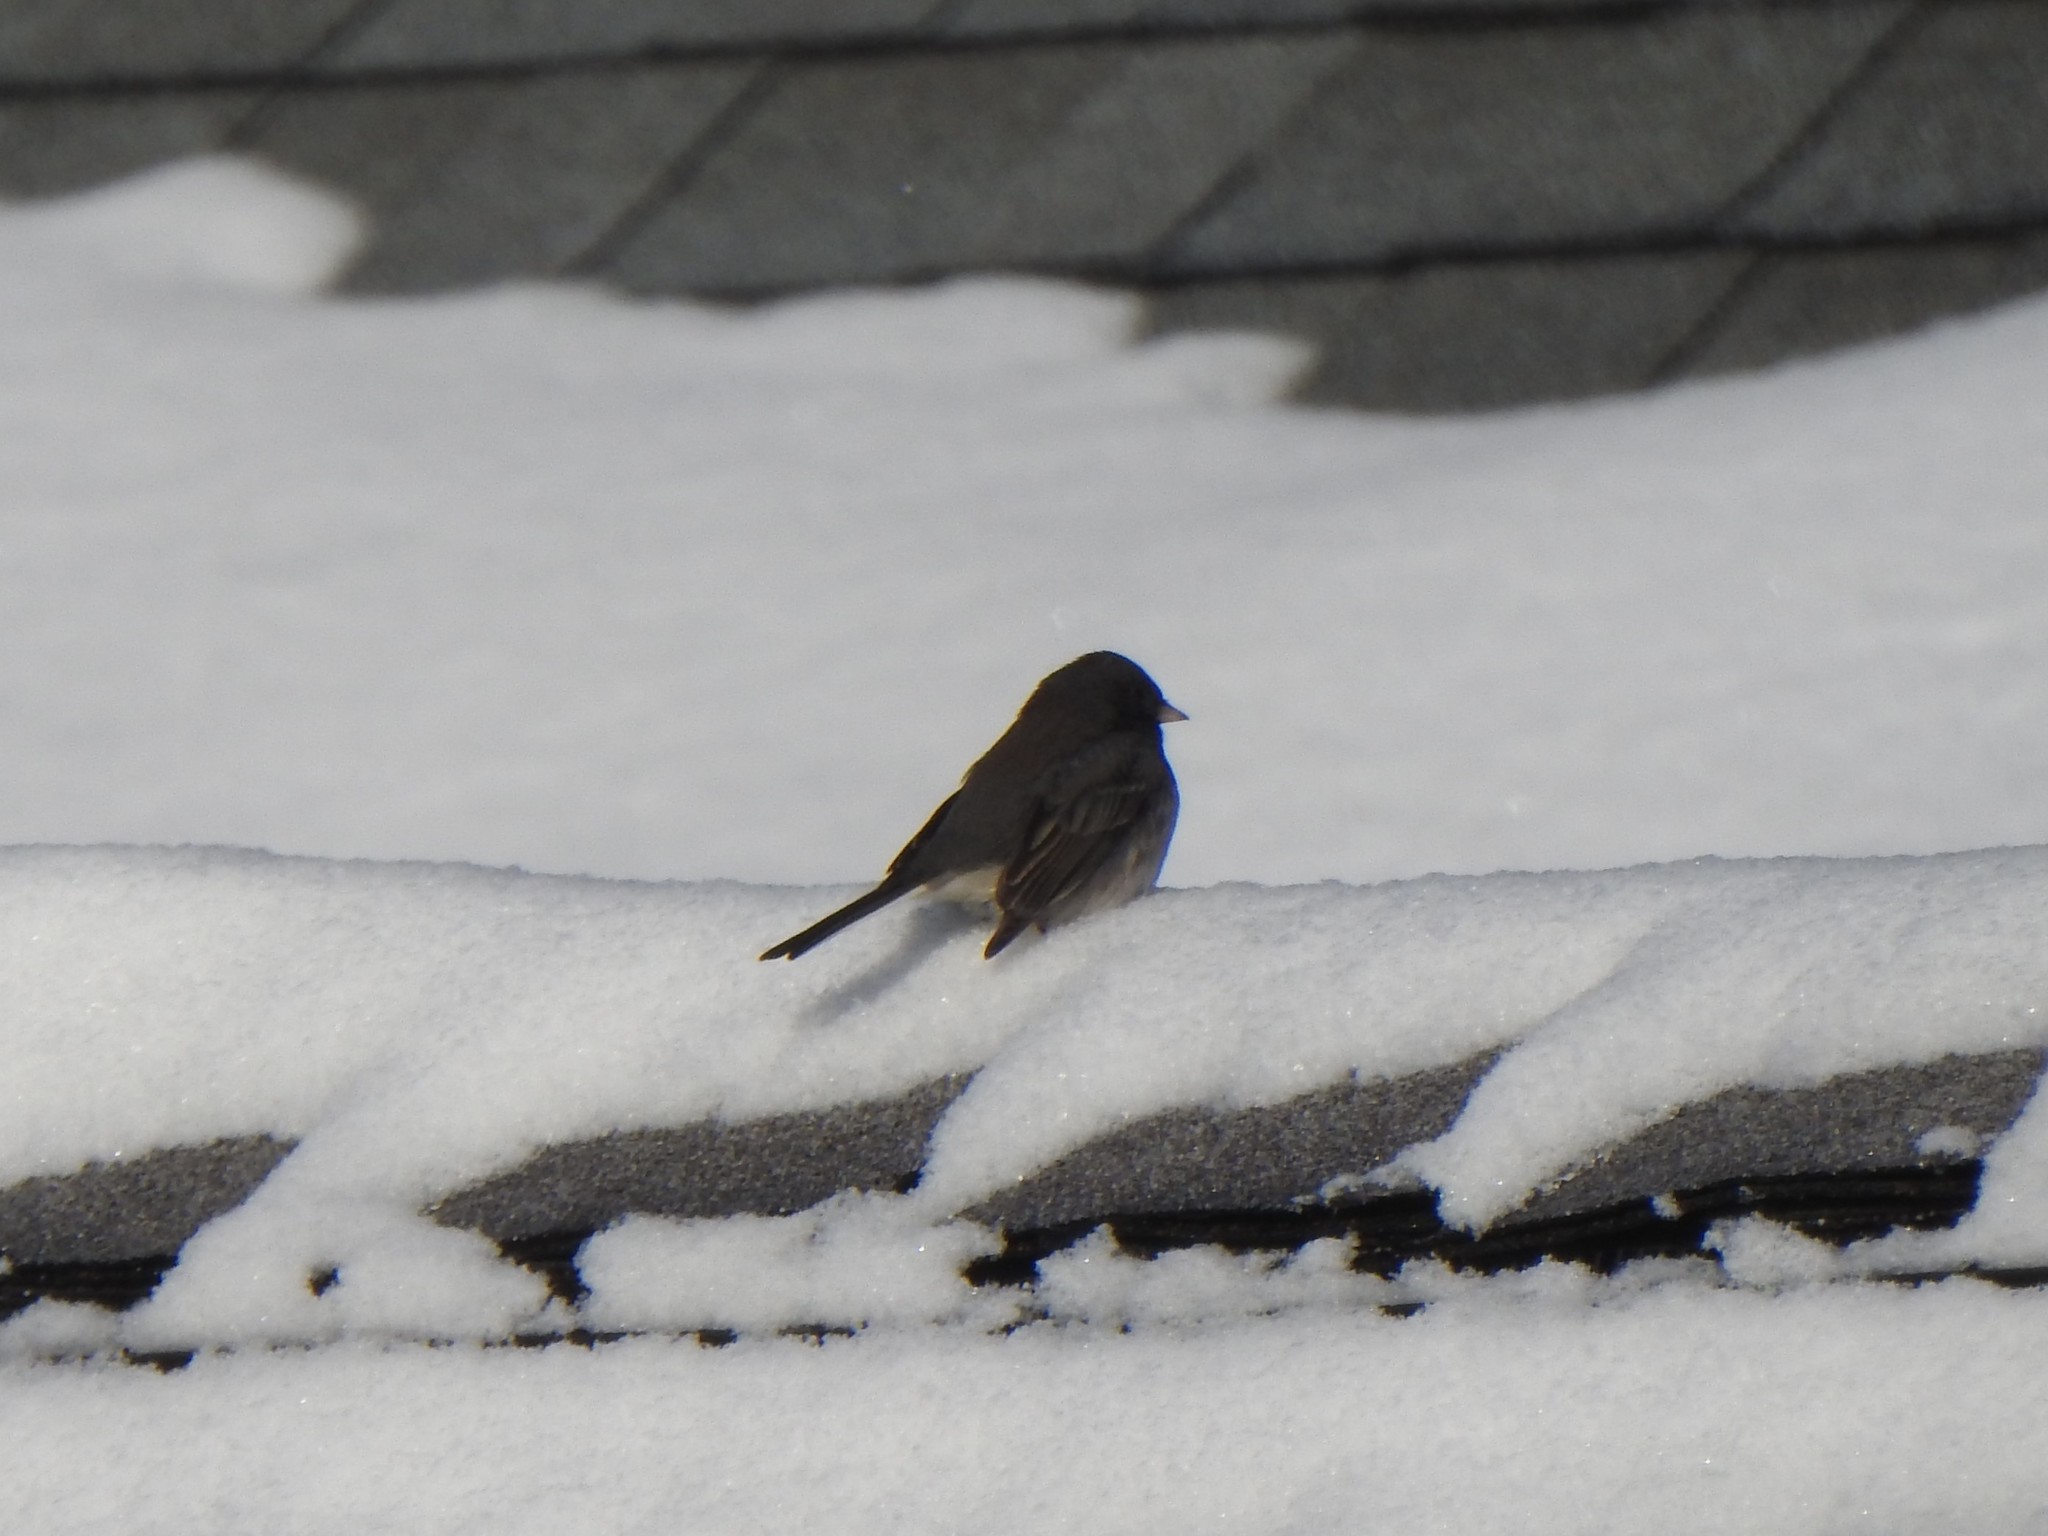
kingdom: Animalia
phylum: Chordata
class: Aves
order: Passeriformes
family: Passerellidae
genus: Junco
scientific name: Junco hyemalis
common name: Dark-eyed junco
